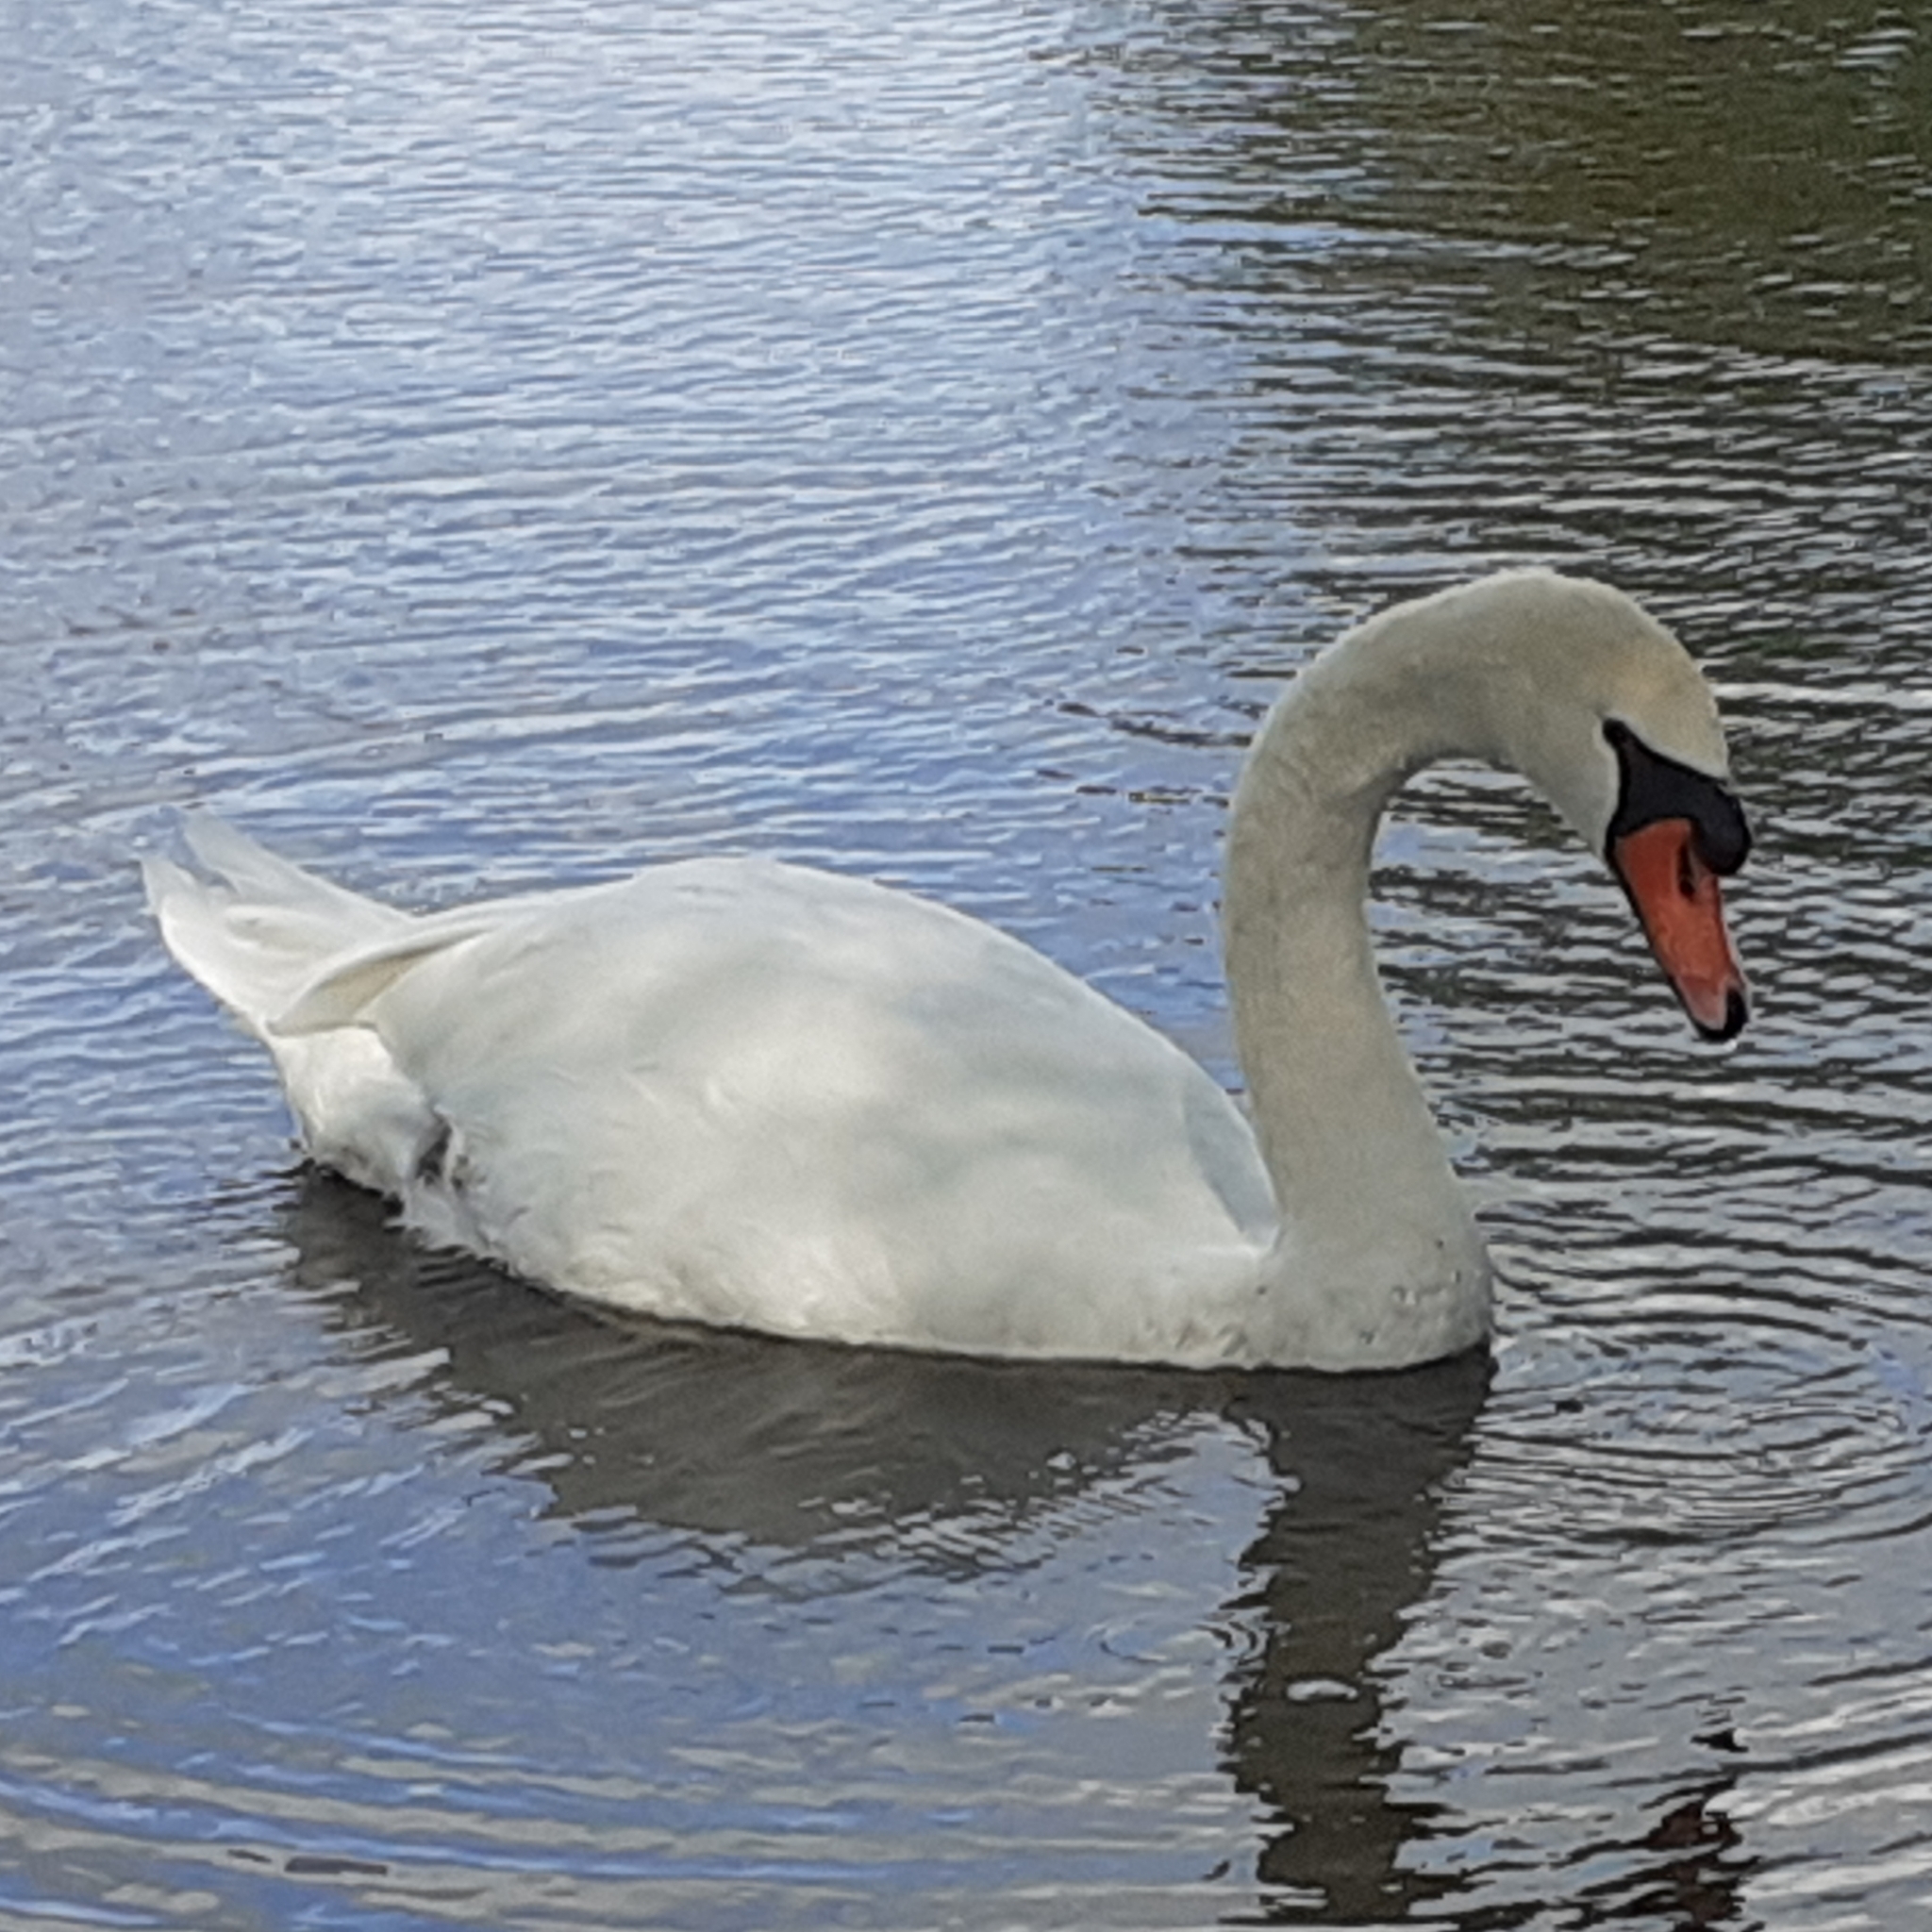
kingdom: Animalia
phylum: Chordata
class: Aves
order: Anseriformes
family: Anatidae
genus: Cygnus
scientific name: Cygnus olor
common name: Mute swan
